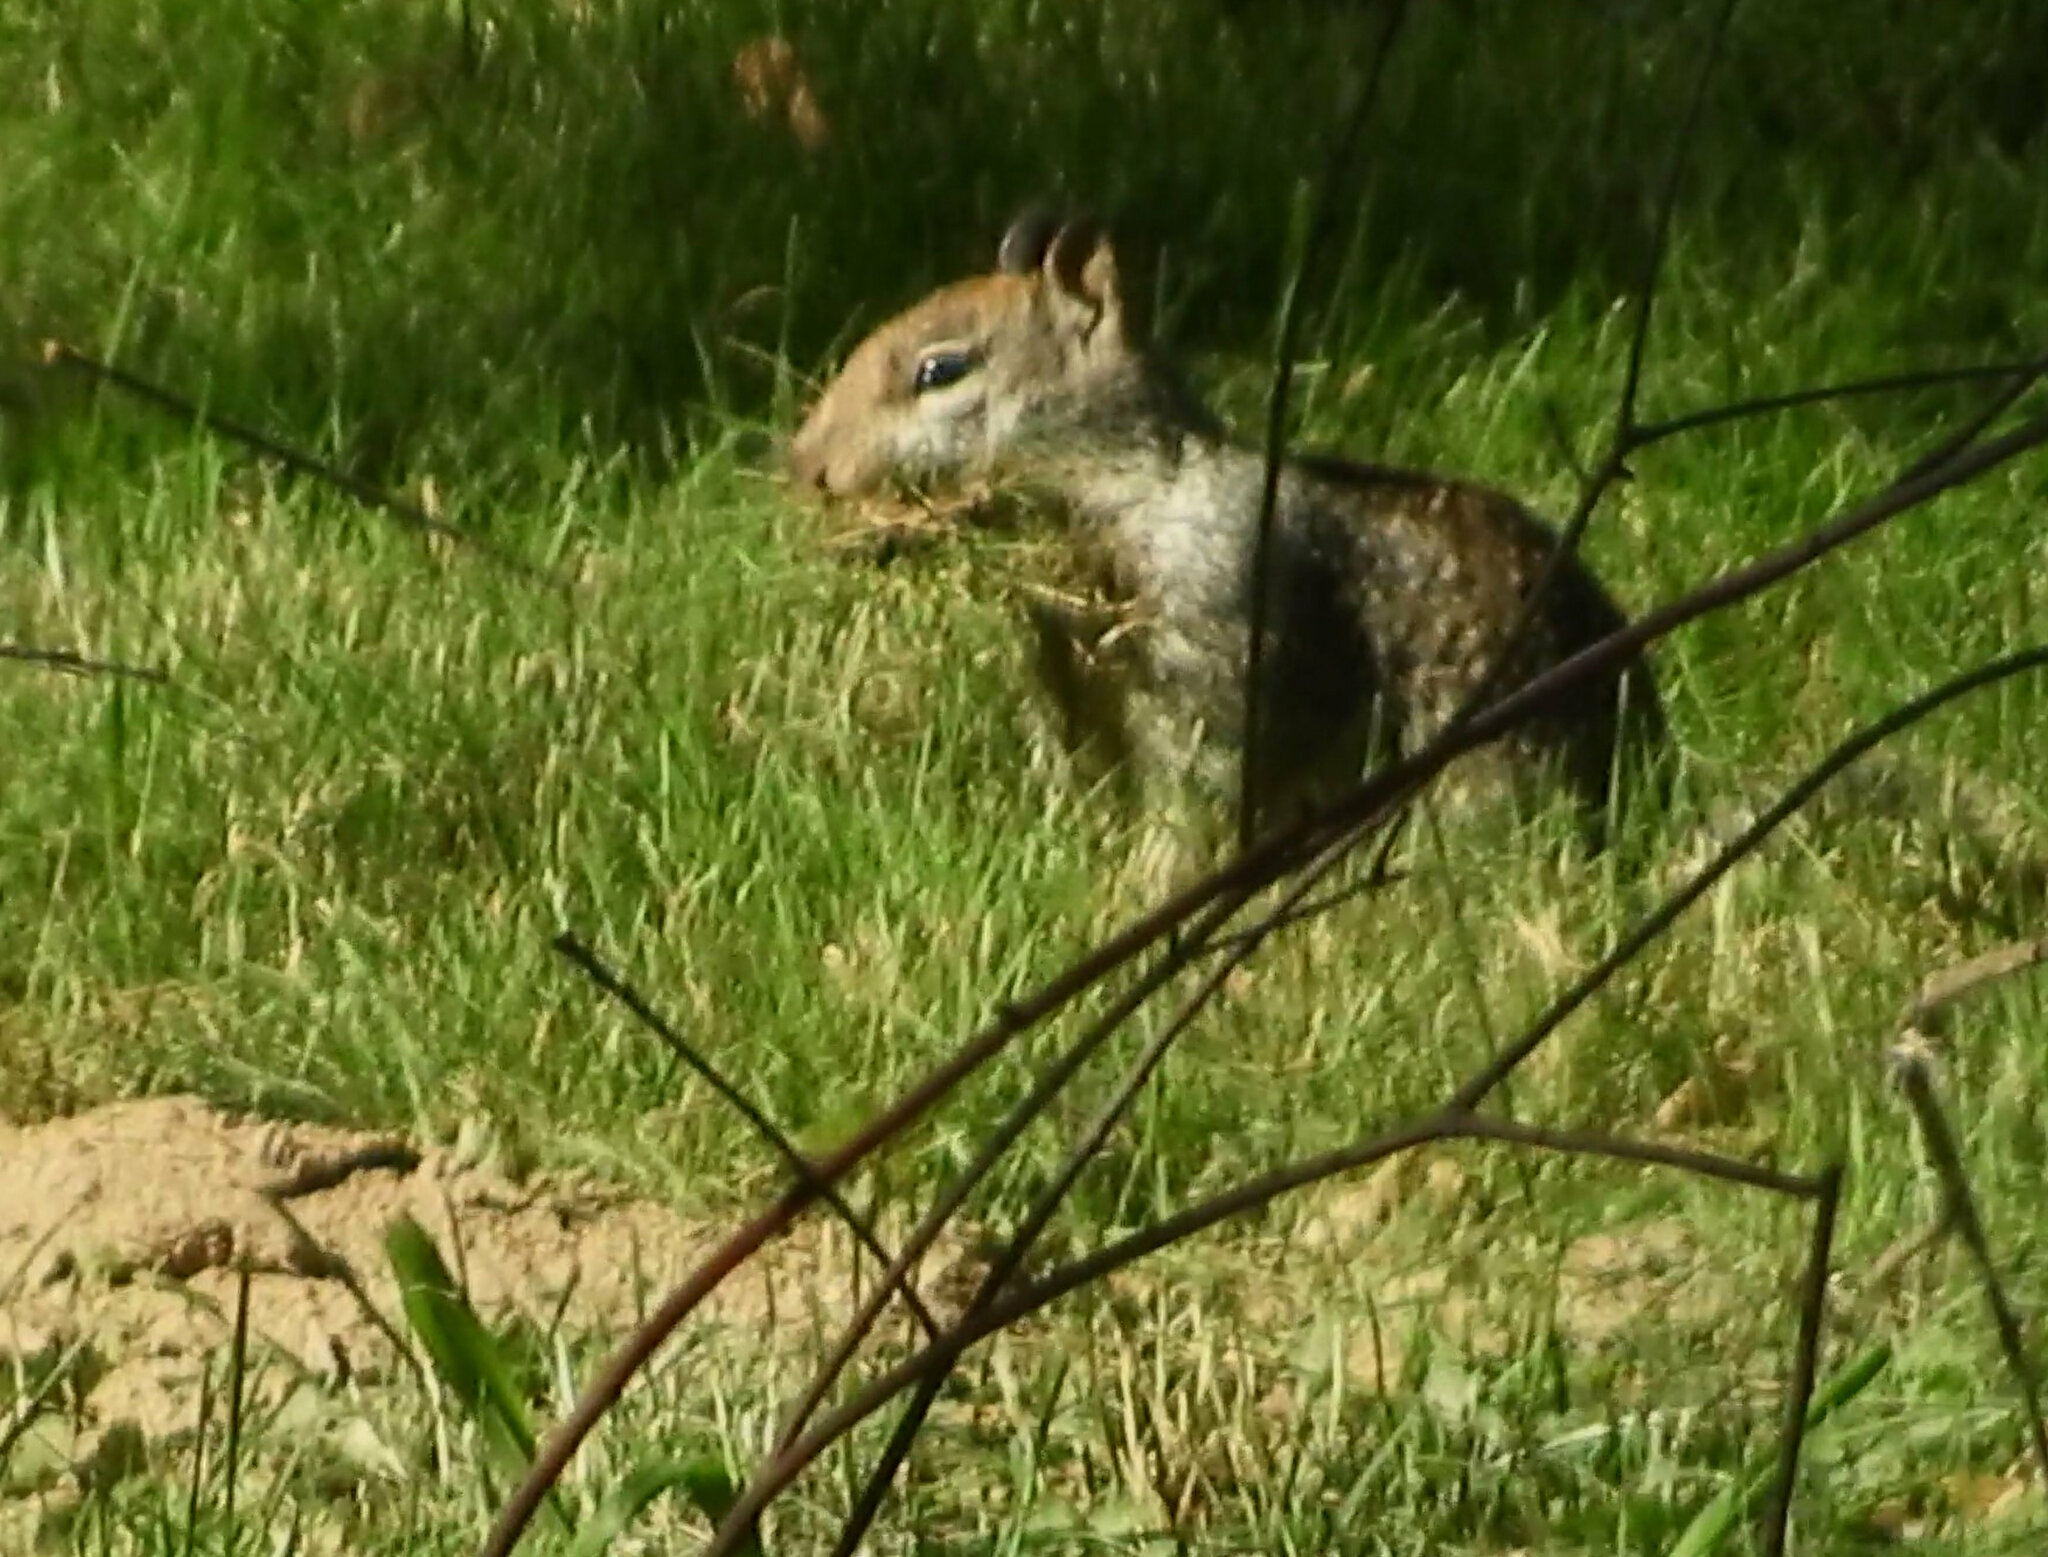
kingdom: Animalia
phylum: Chordata
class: Mammalia
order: Rodentia
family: Sciuridae
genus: Otospermophilus
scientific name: Otospermophilus beecheyi
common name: California ground squirrel
